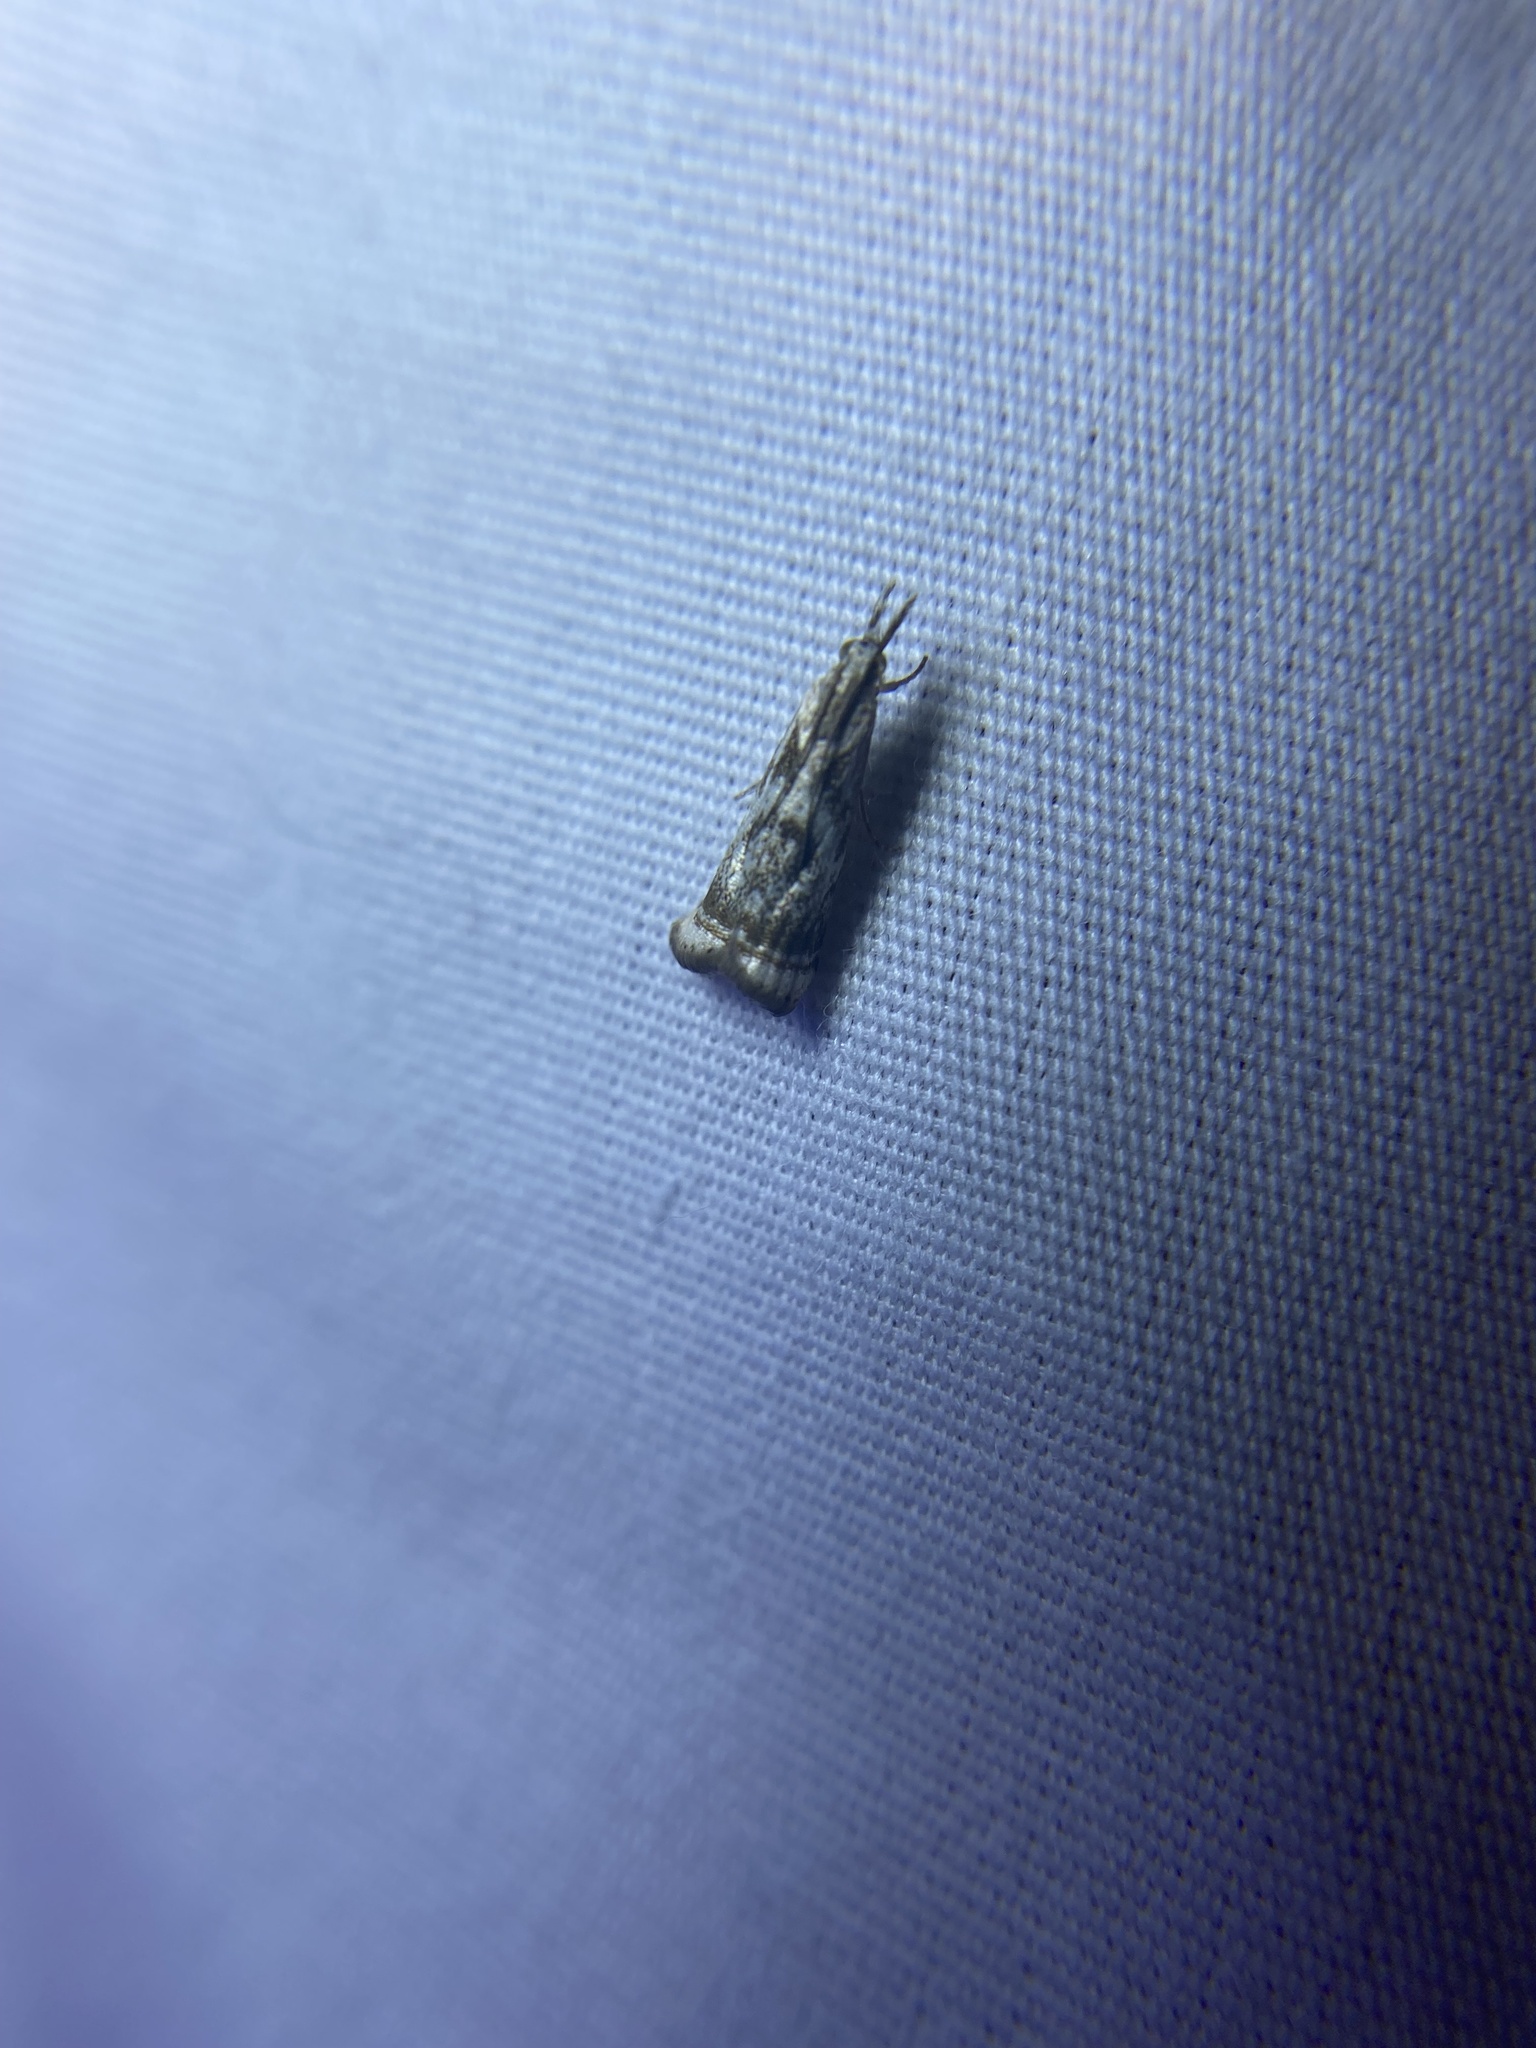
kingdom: Animalia
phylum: Arthropoda
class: Insecta
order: Lepidoptera
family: Crambidae
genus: Microcrambus
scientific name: Microcrambus elegans
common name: Elegant grass-veneer
